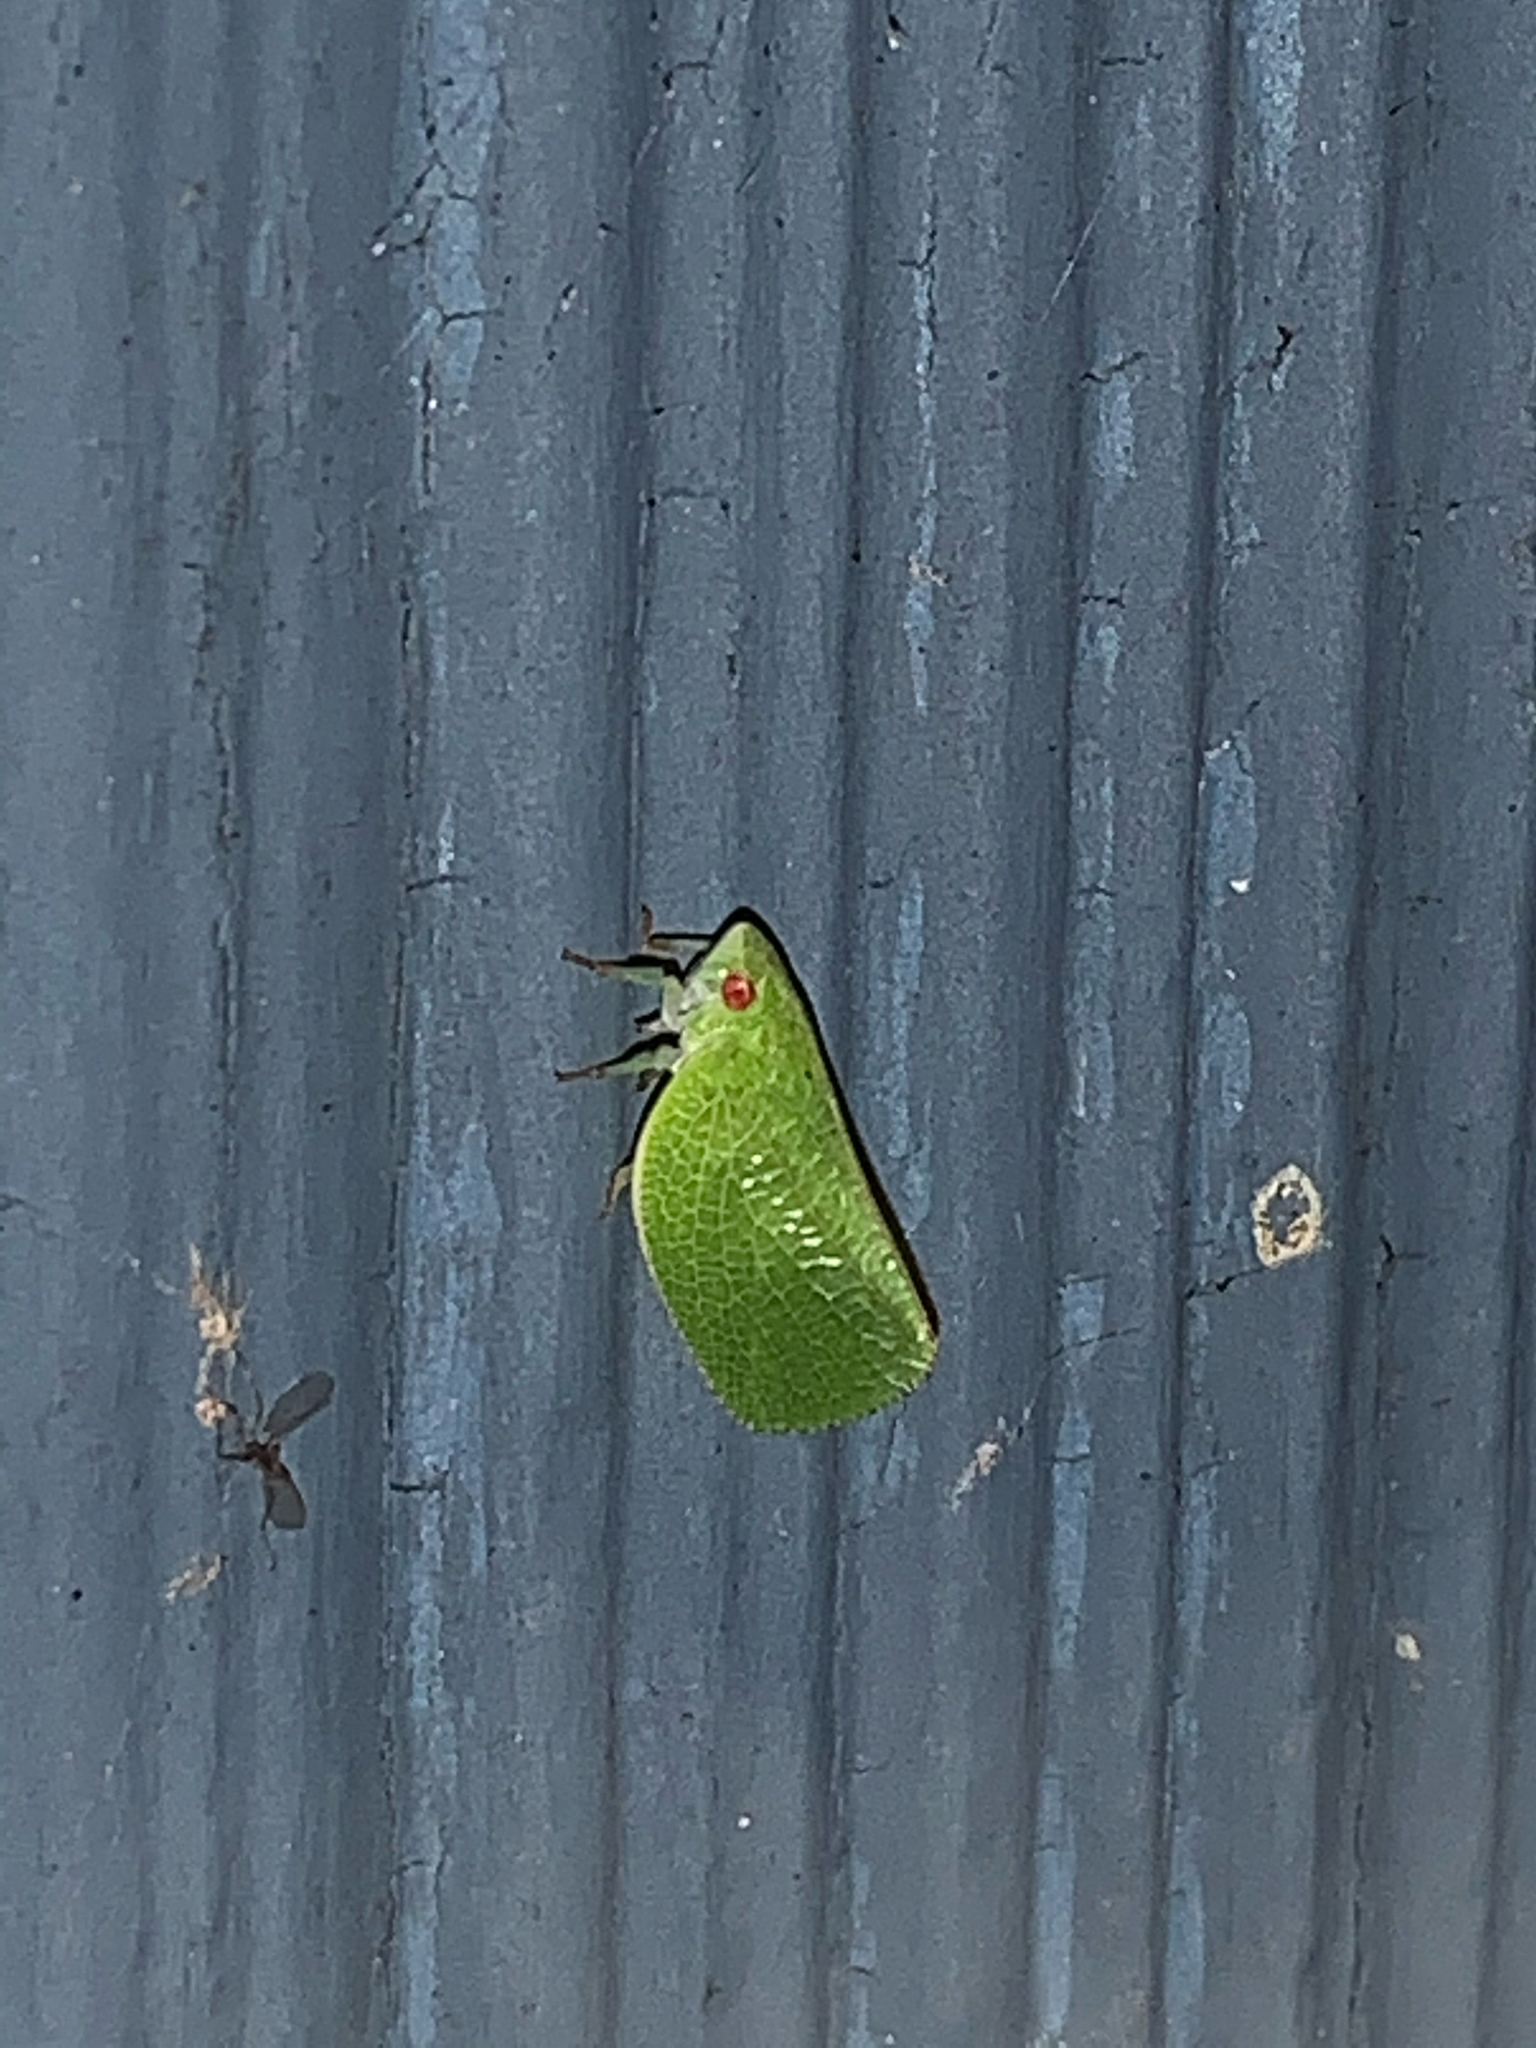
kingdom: Animalia
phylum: Arthropoda
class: Insecta
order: Hemiptera
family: Acanaloniidae
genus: Acanalonia
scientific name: Acanalonia conica
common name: Green cone-headed planthopper
